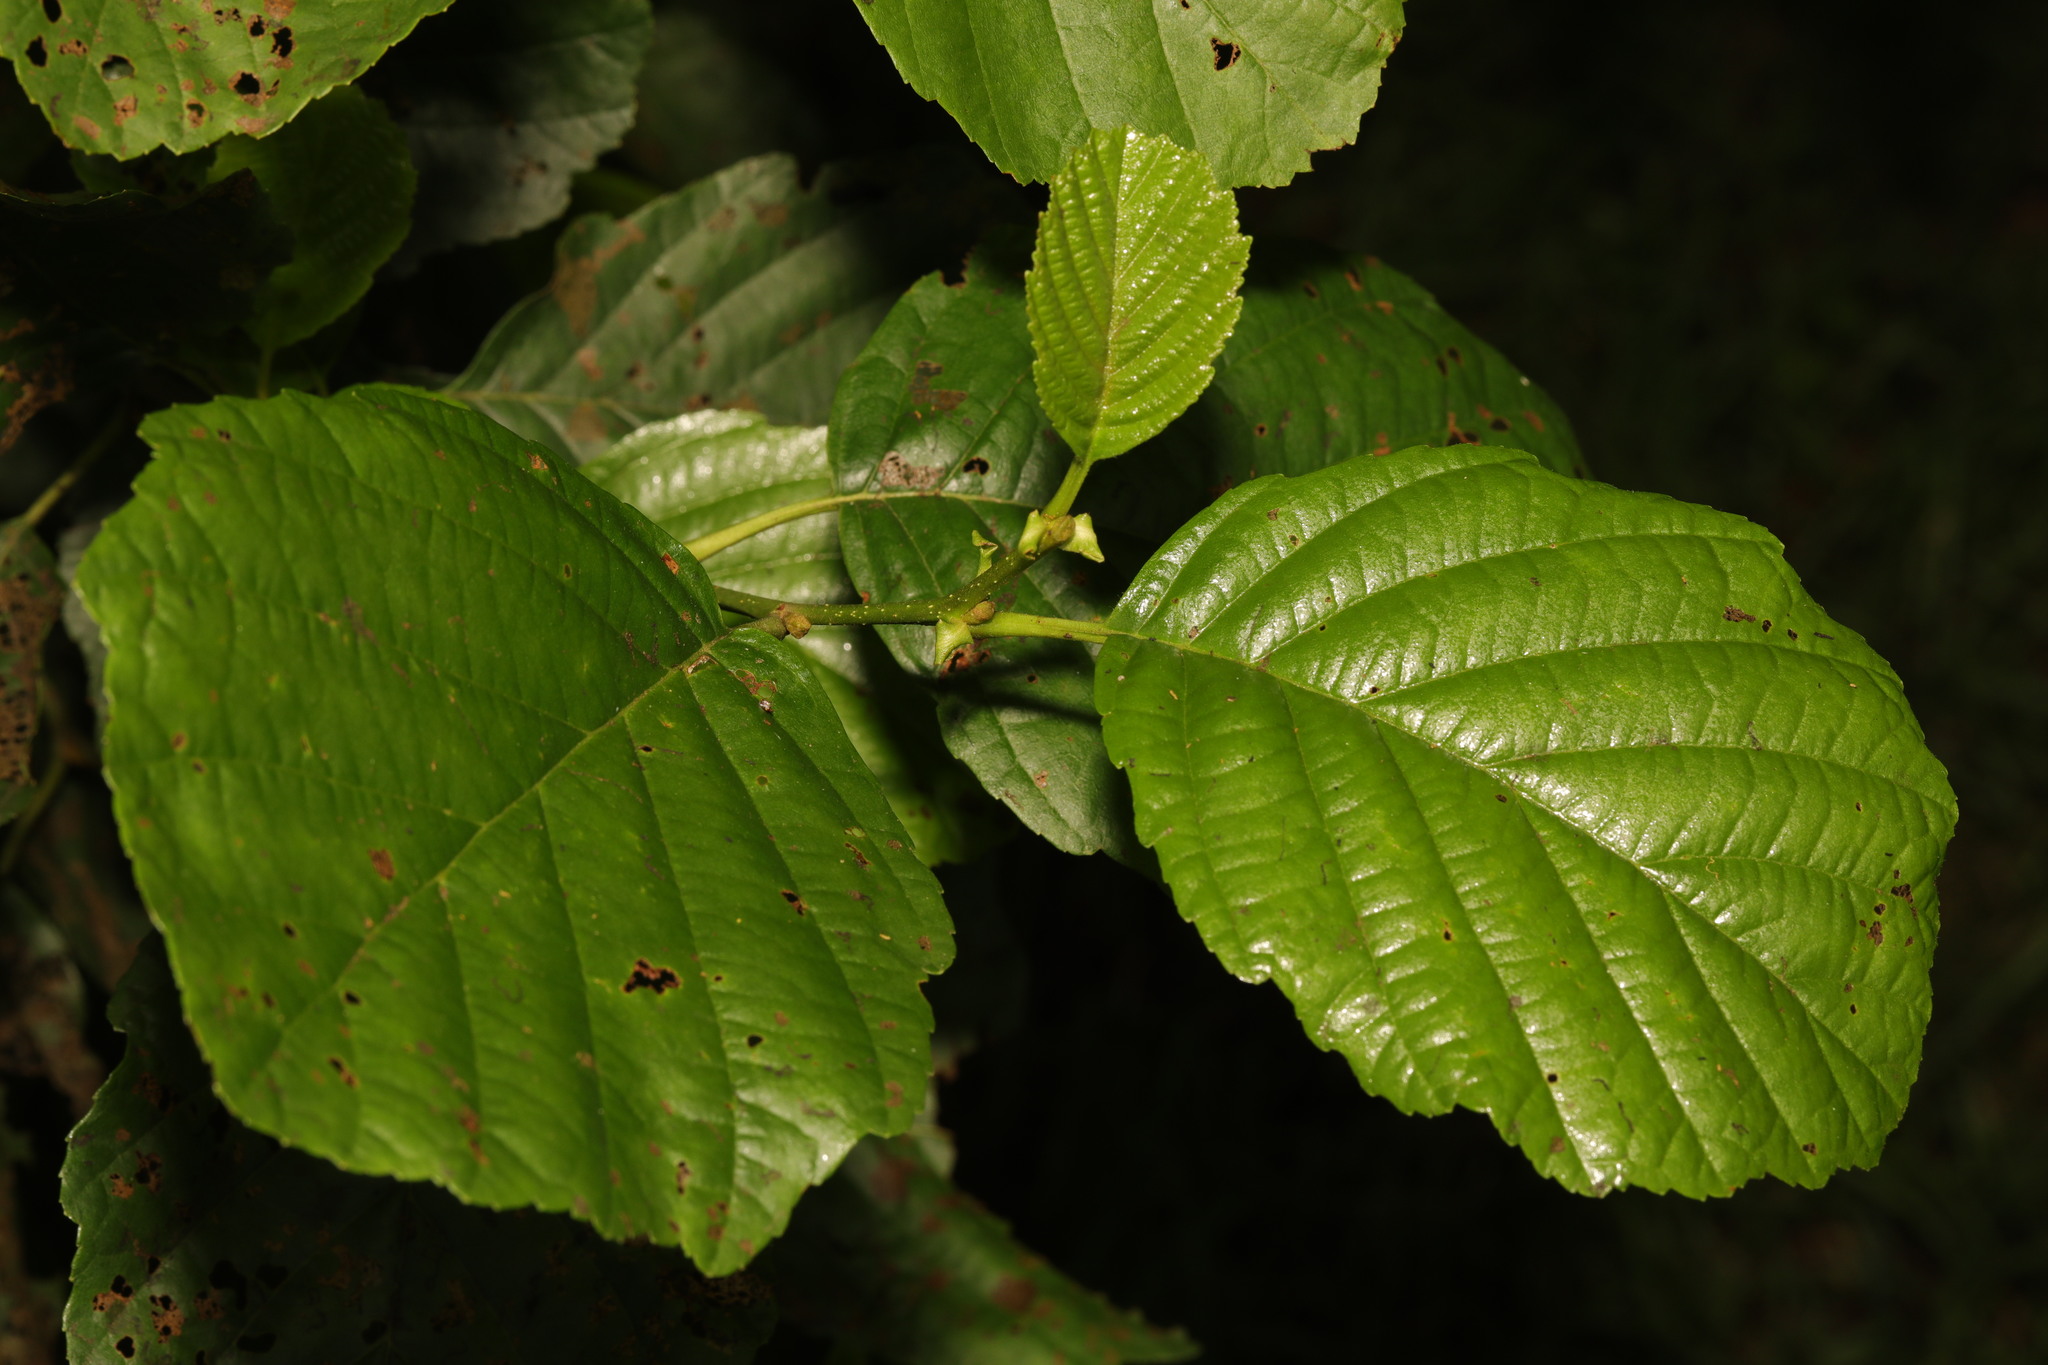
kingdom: Plantae
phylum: Tracheophyta
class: Magnoliopsida
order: Fagales
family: Betulaceae
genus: Alnus
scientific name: Alnus glutinosa
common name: Black alder
